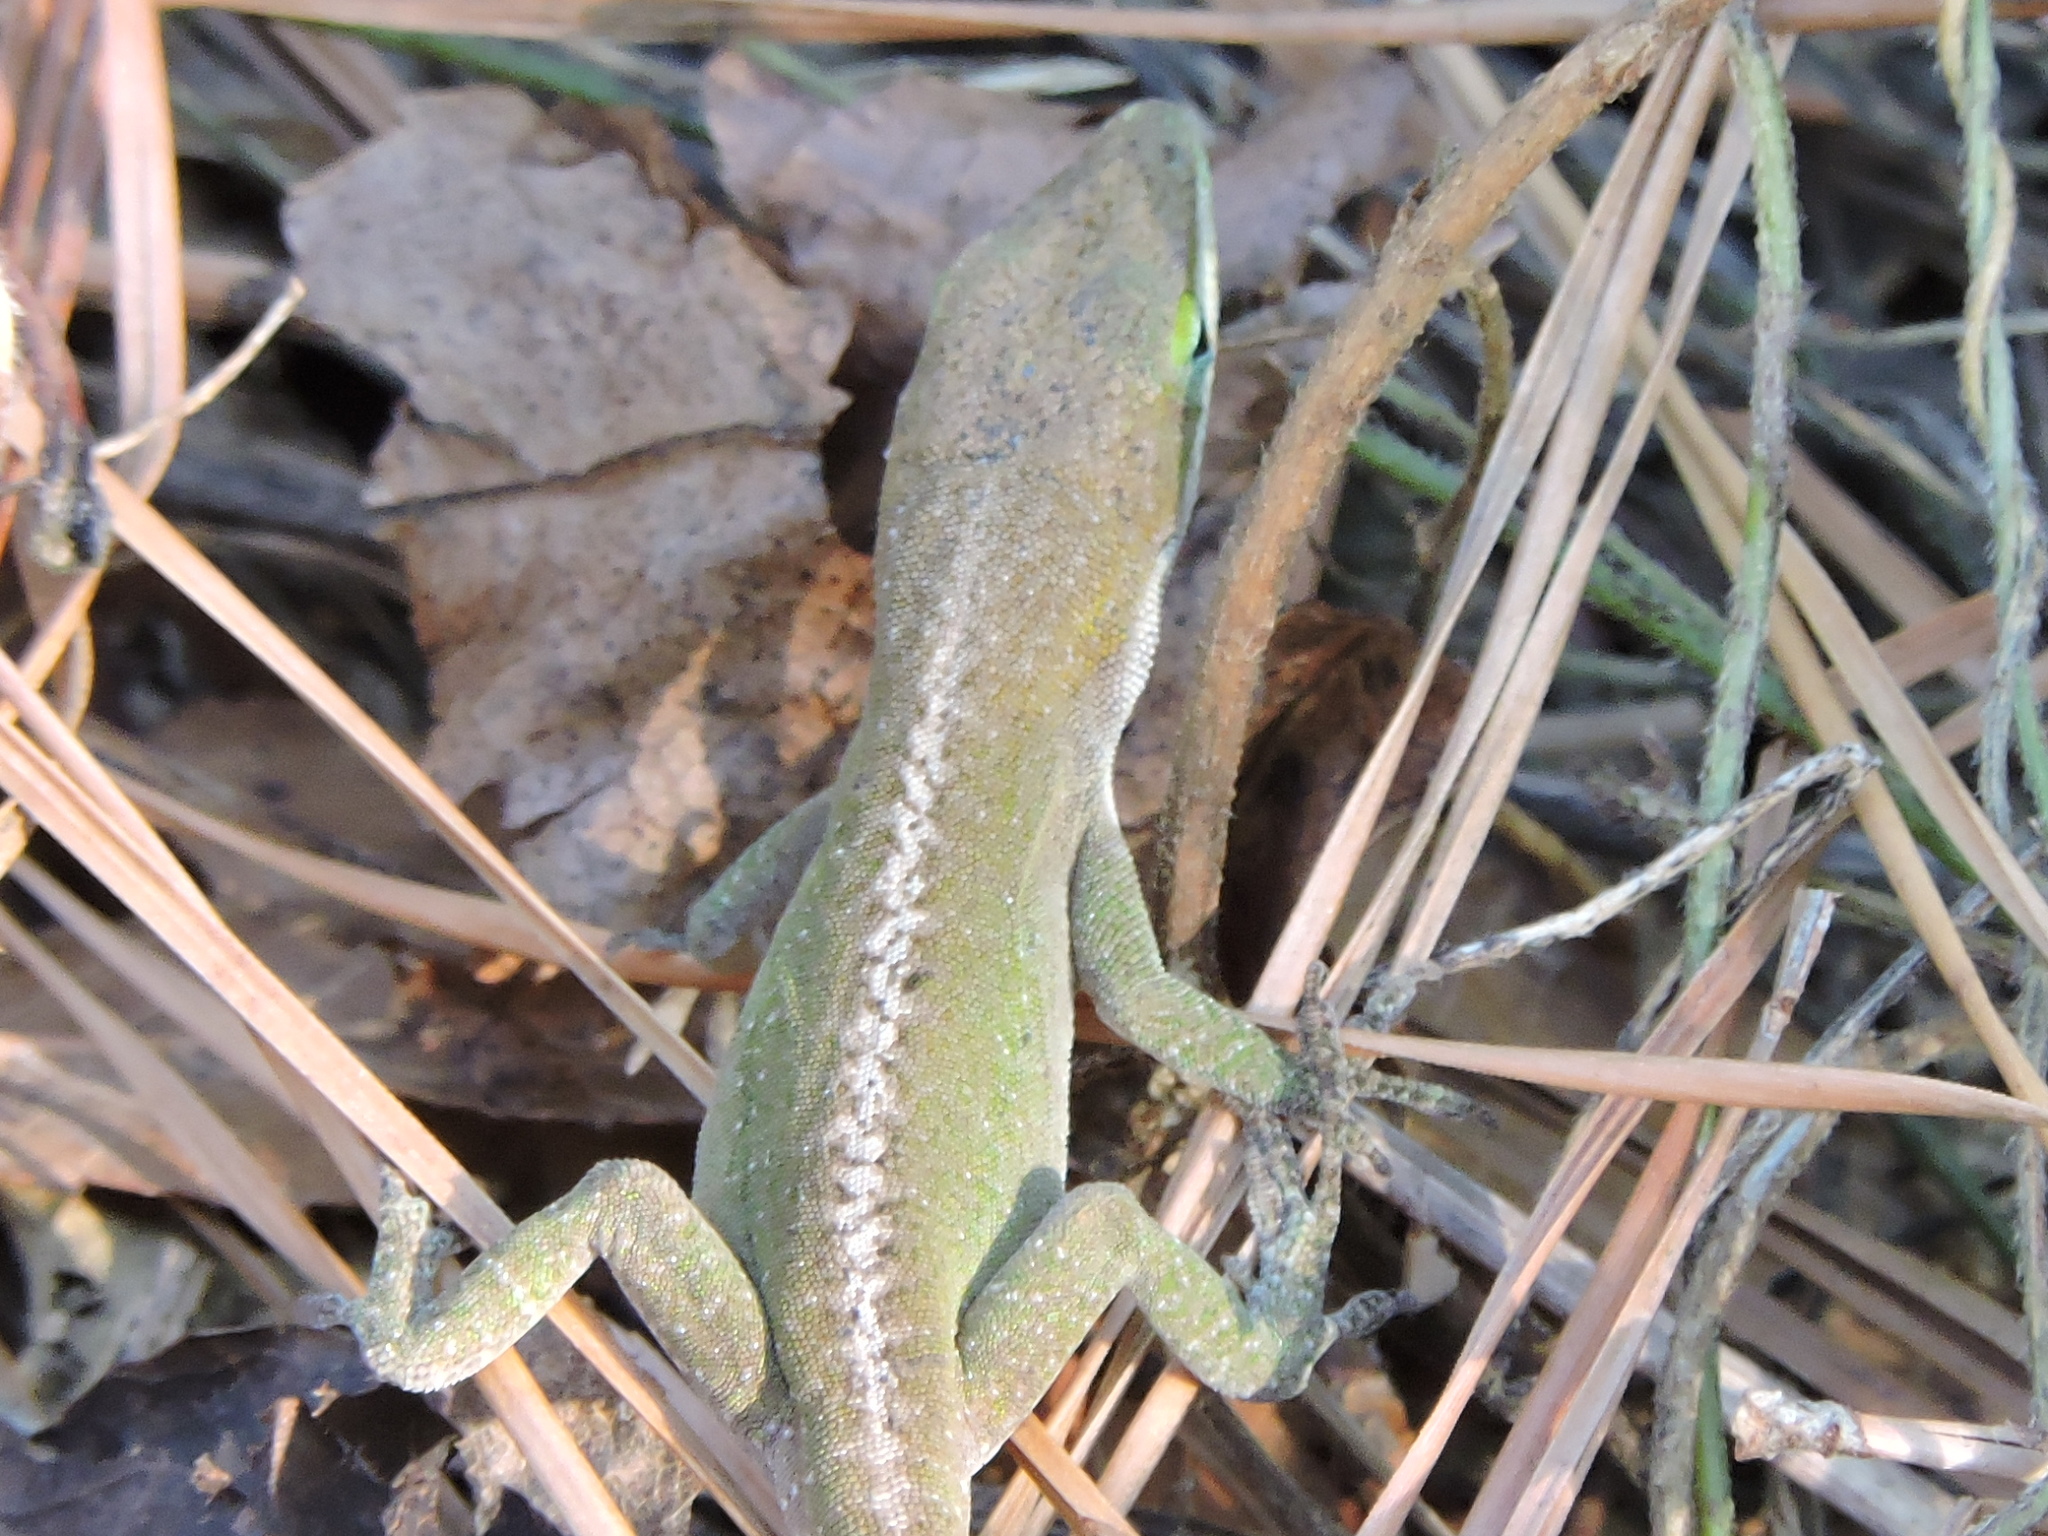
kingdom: Animalia
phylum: Chordata
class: Squamata
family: Dactyloidae
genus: Anolis
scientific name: Anolis carolinensis
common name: Green anole
